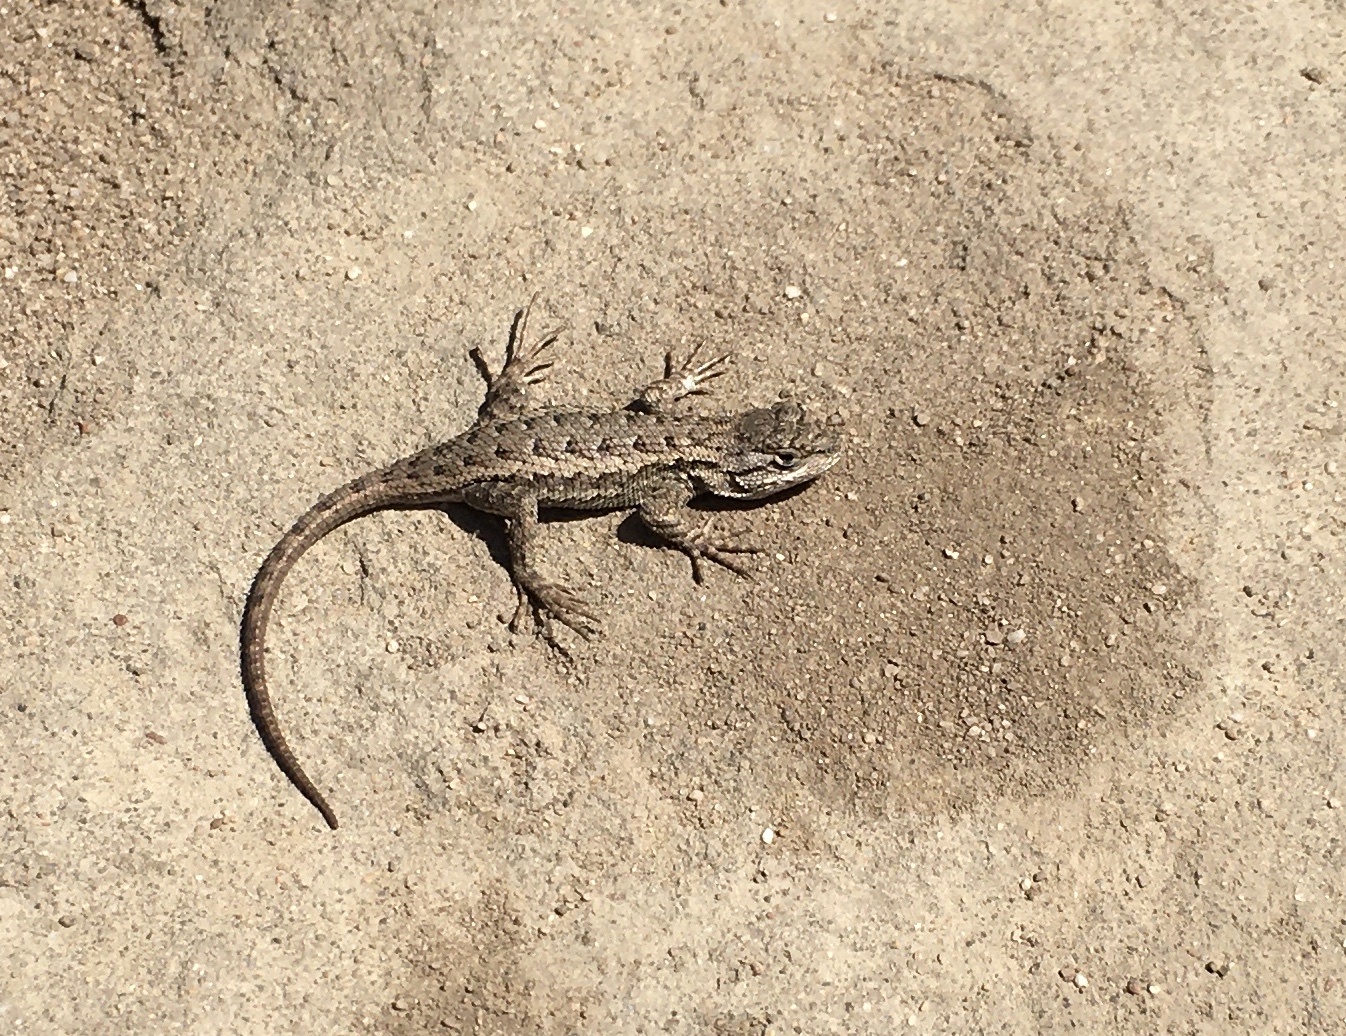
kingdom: Animalia
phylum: Chordata
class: Squamata
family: Phrynosomatidae
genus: Sceloporus
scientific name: Sceloporus occidentalis
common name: Western fence lizard
